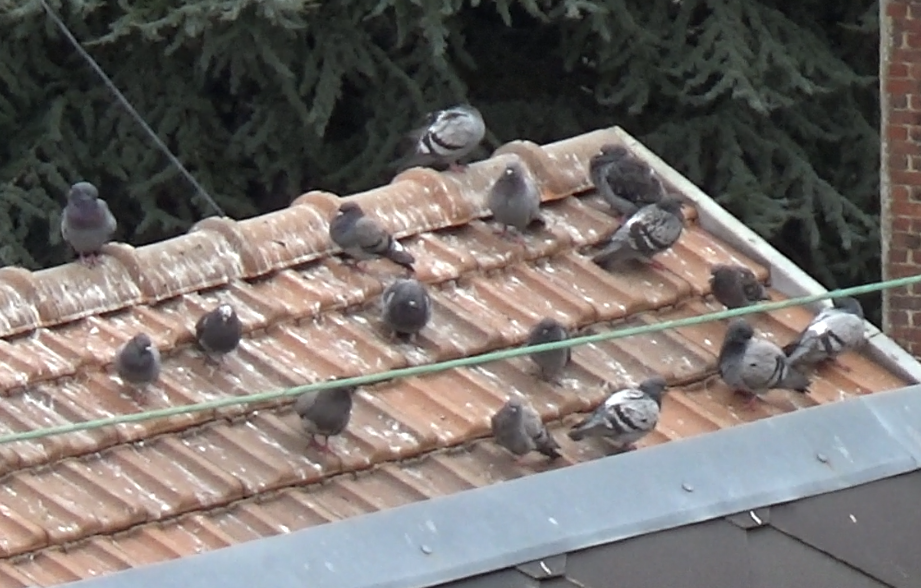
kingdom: Animalia
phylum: Chordata
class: Aves
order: Columbiformes
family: Columbidae
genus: Columba
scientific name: Columba livia
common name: Rock pigeon
